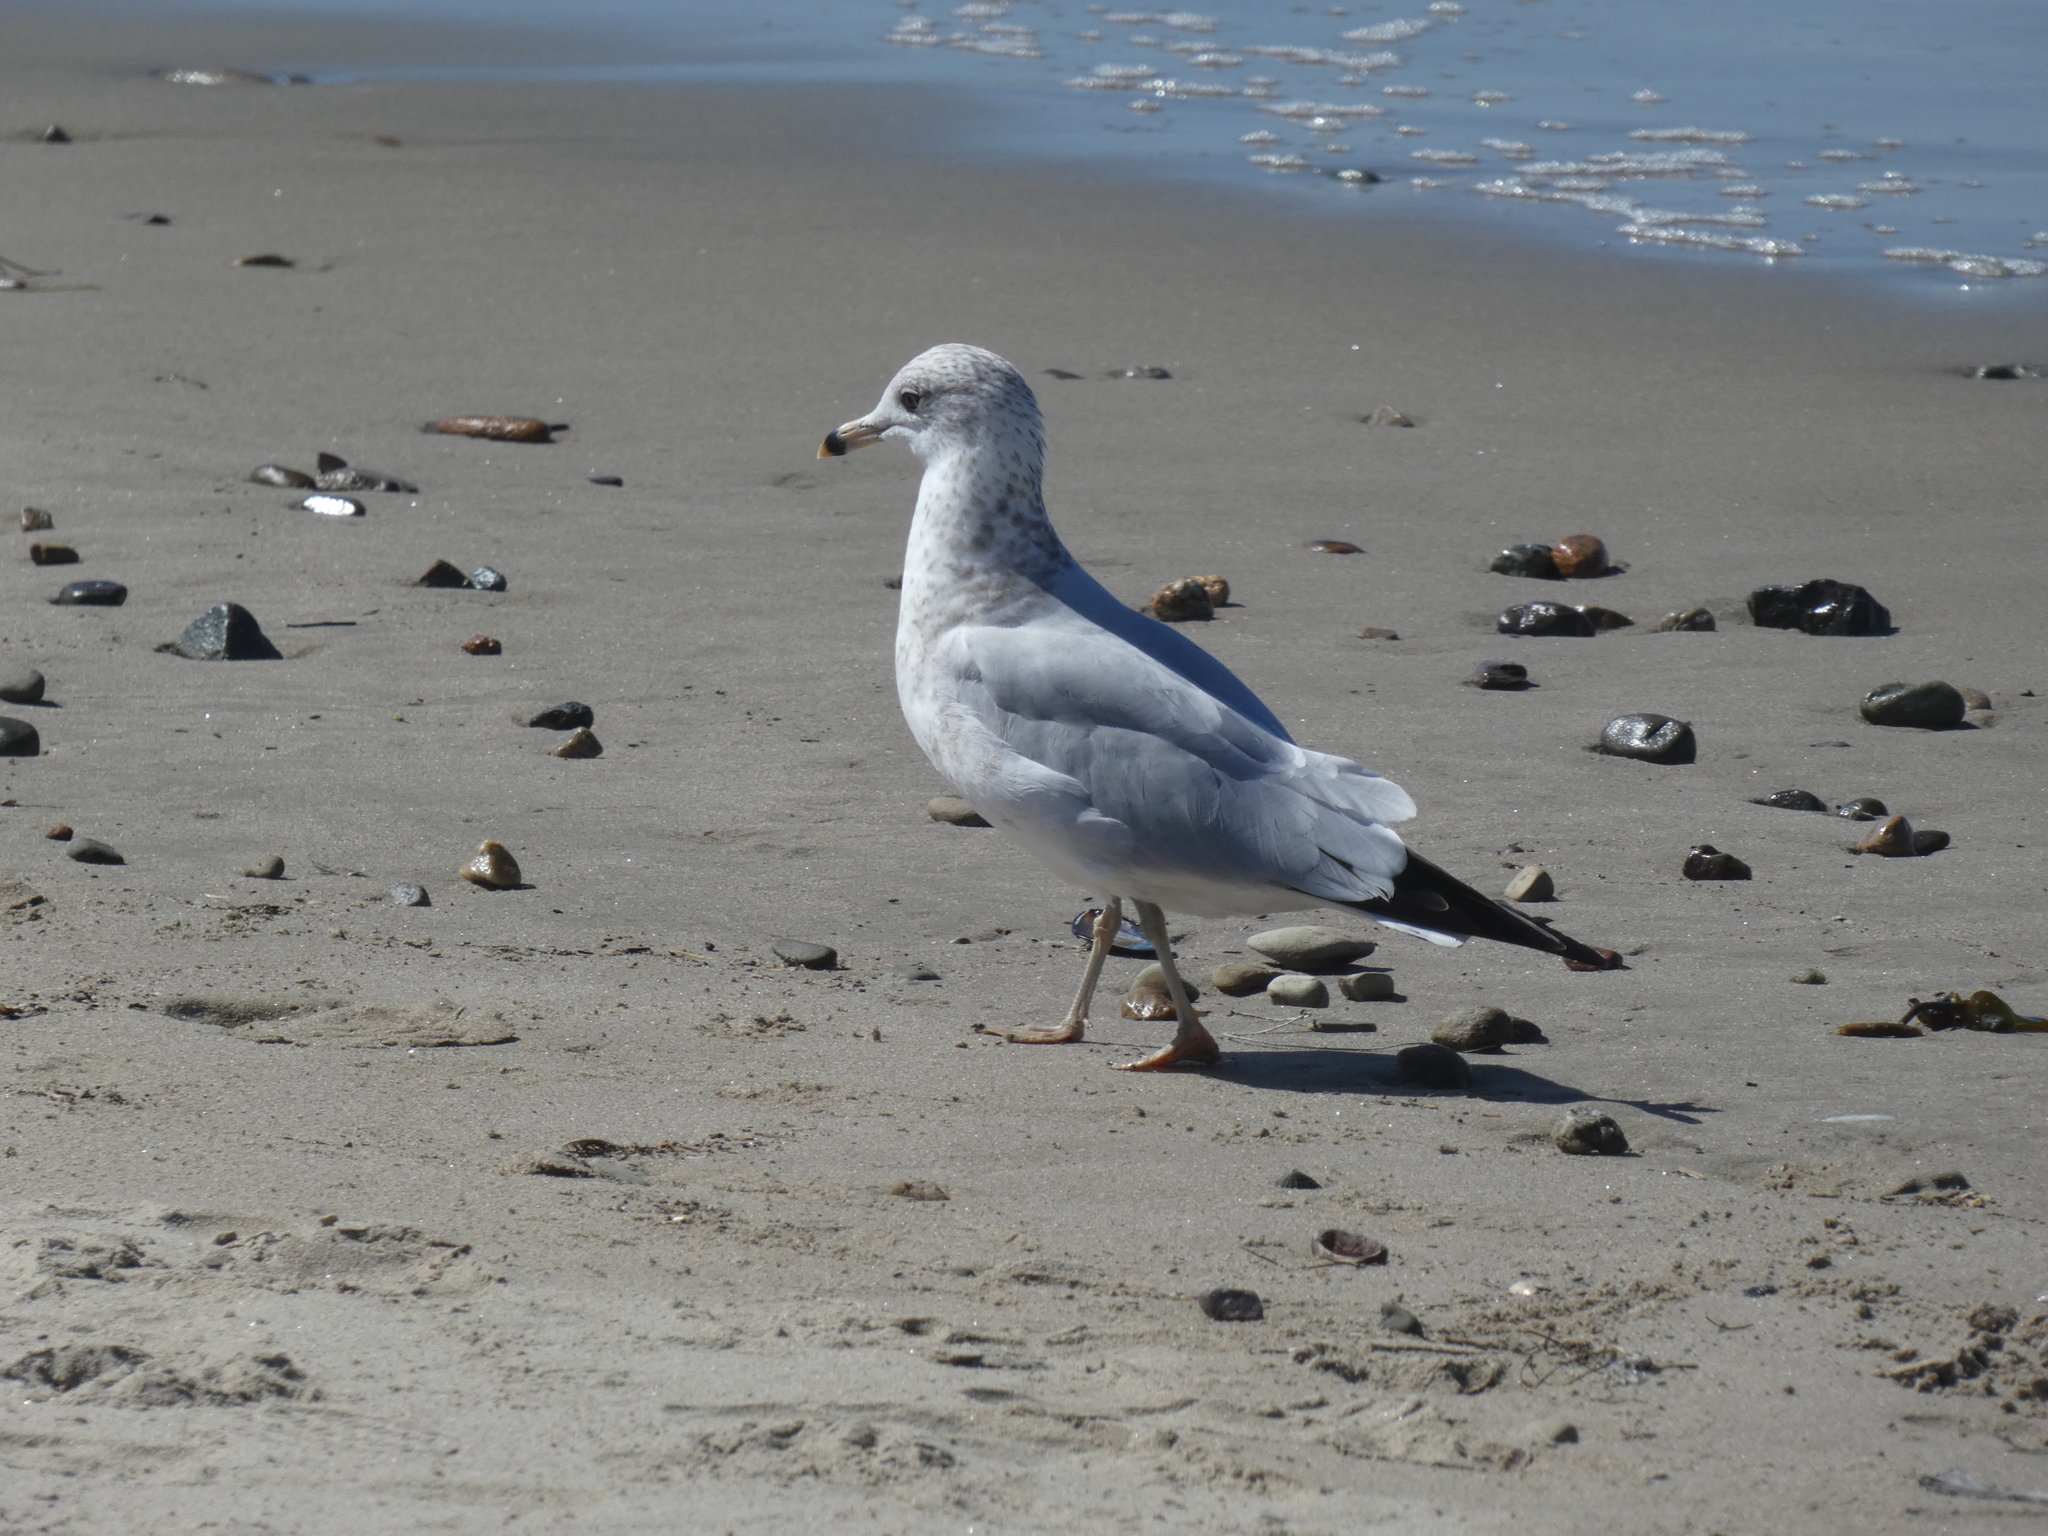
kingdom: Animalia
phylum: Chordata
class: Aves
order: Charadriiformes
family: Laridae
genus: Larus
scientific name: Larus delawarensis
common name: Ring-billed gull
